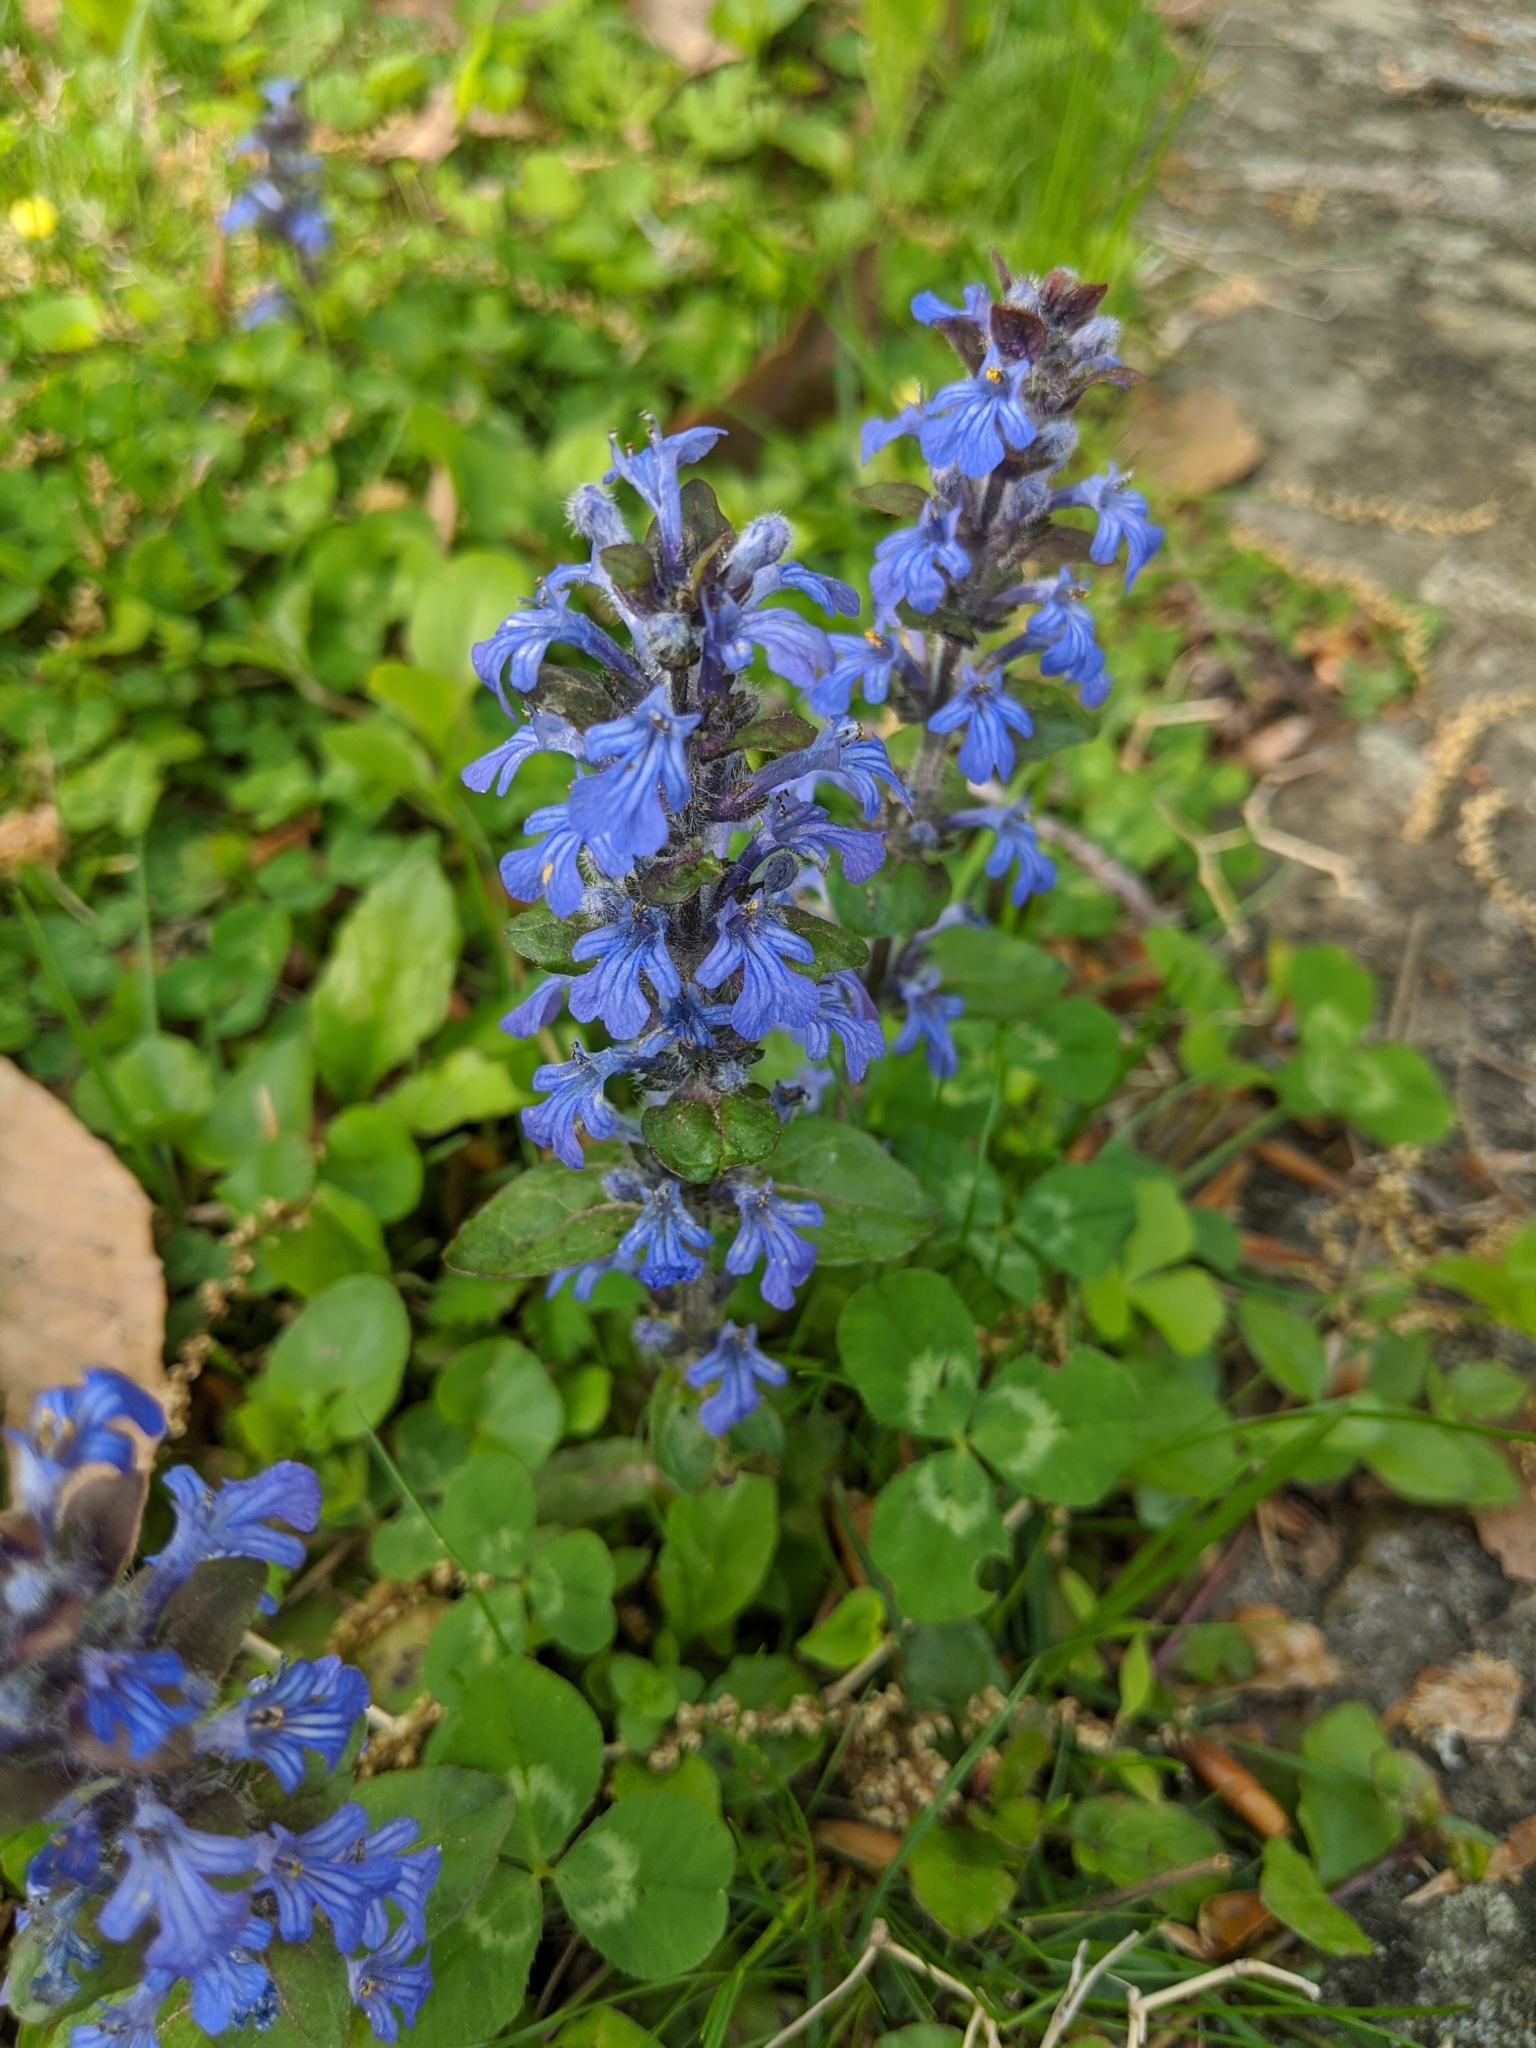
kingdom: Plantae
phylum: Tracheophyta
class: Magnoliopsida
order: Lamiales
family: Lamiaceae
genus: Ajuga
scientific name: Ajuga reptans
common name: Bugle
